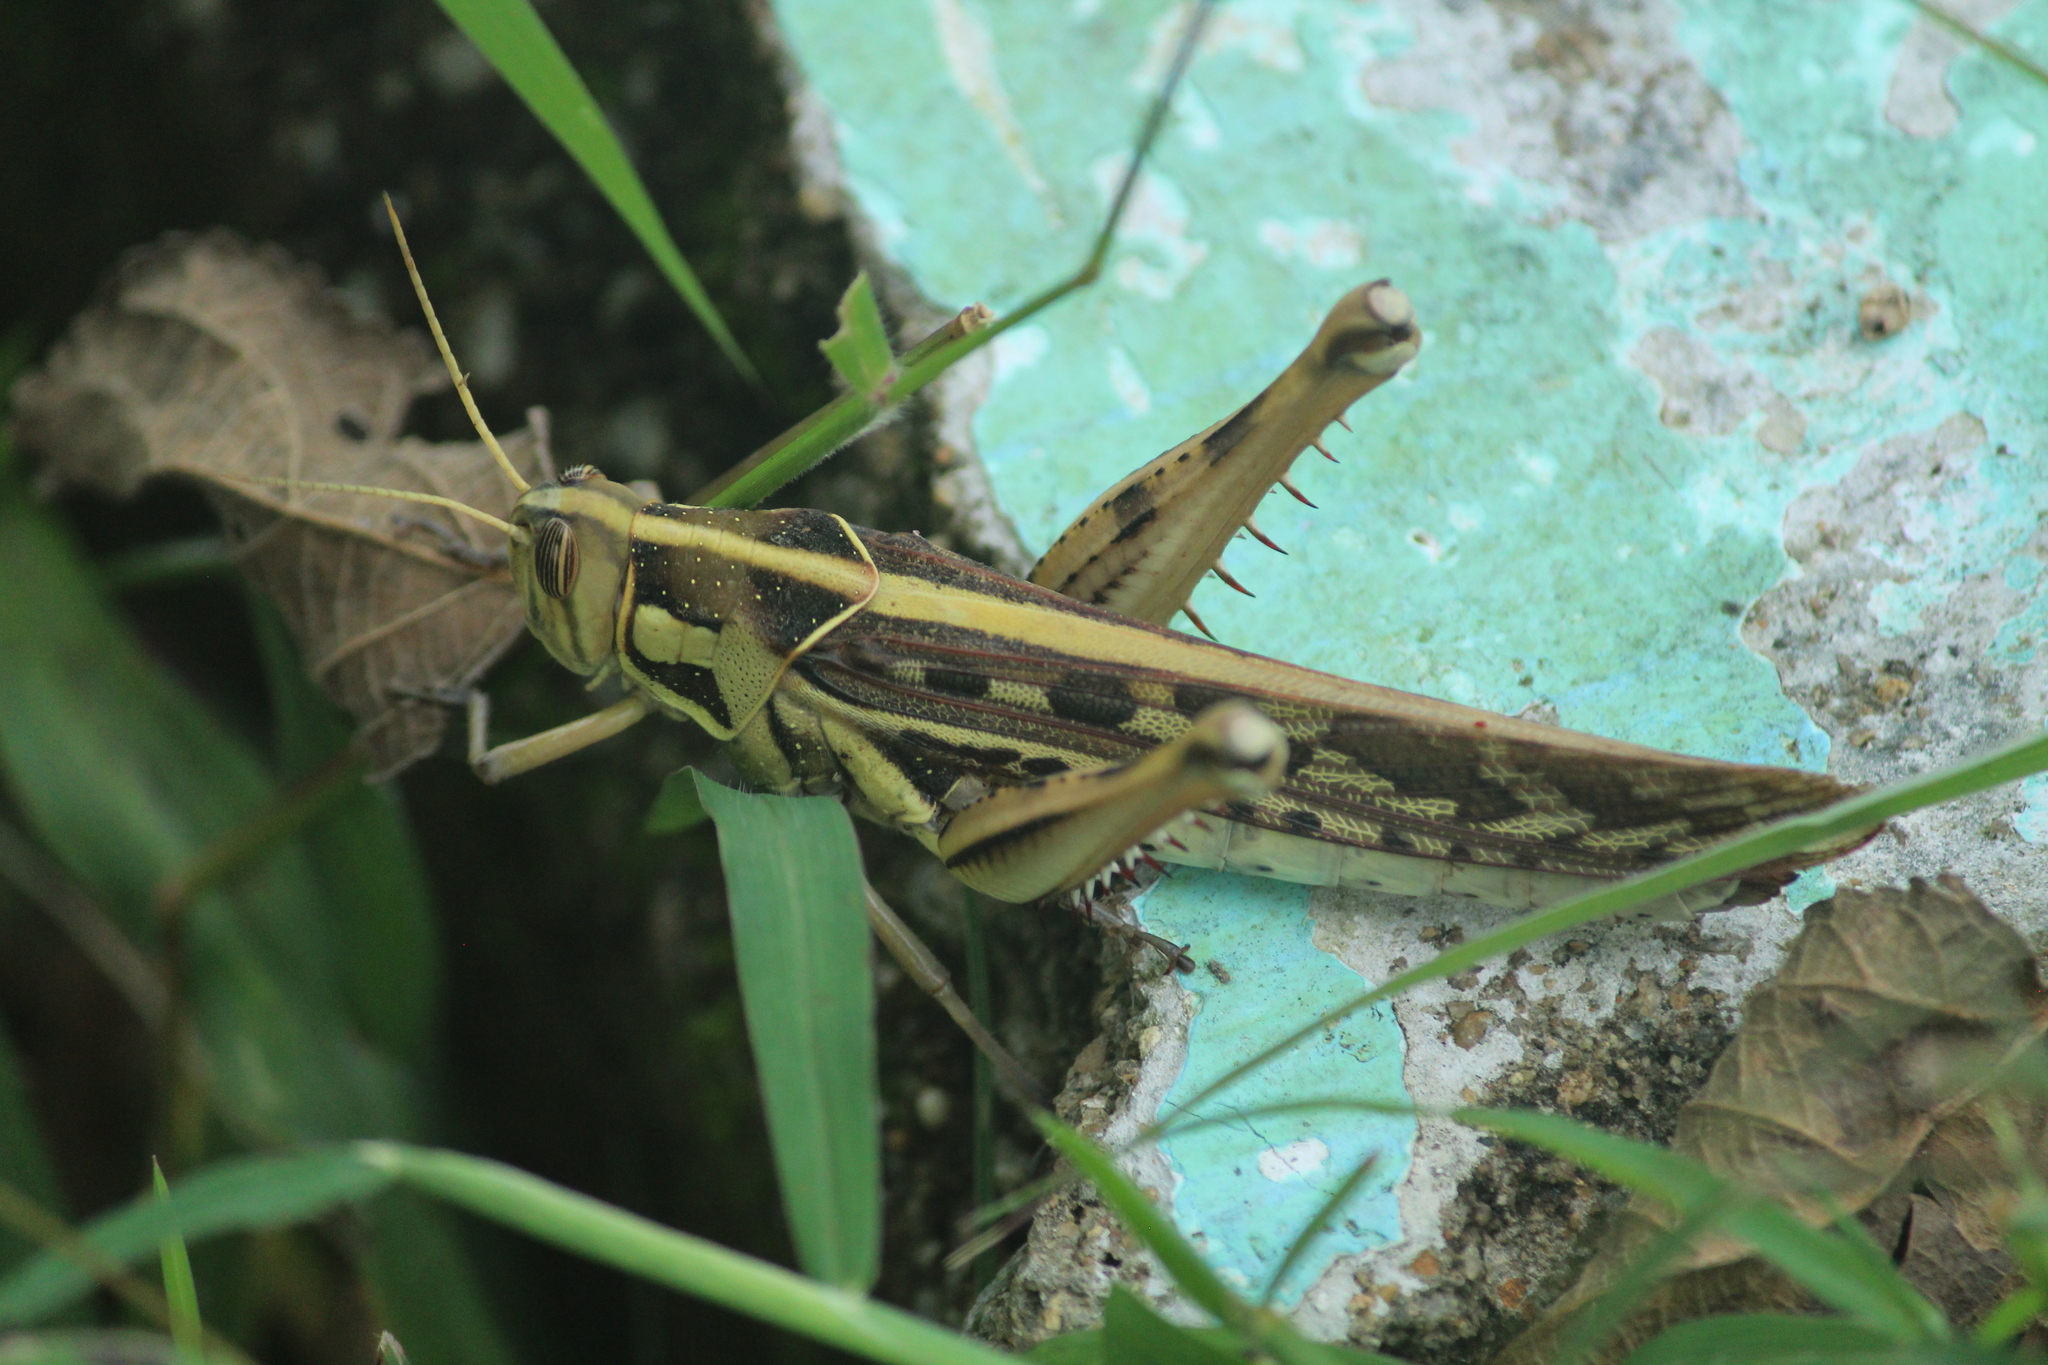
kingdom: Animalia
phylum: Arthropoda
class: Insecta
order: Orthoptera
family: Acrididae
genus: Cyrtacanthacris
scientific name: Cyrtacanthacris tatarica
